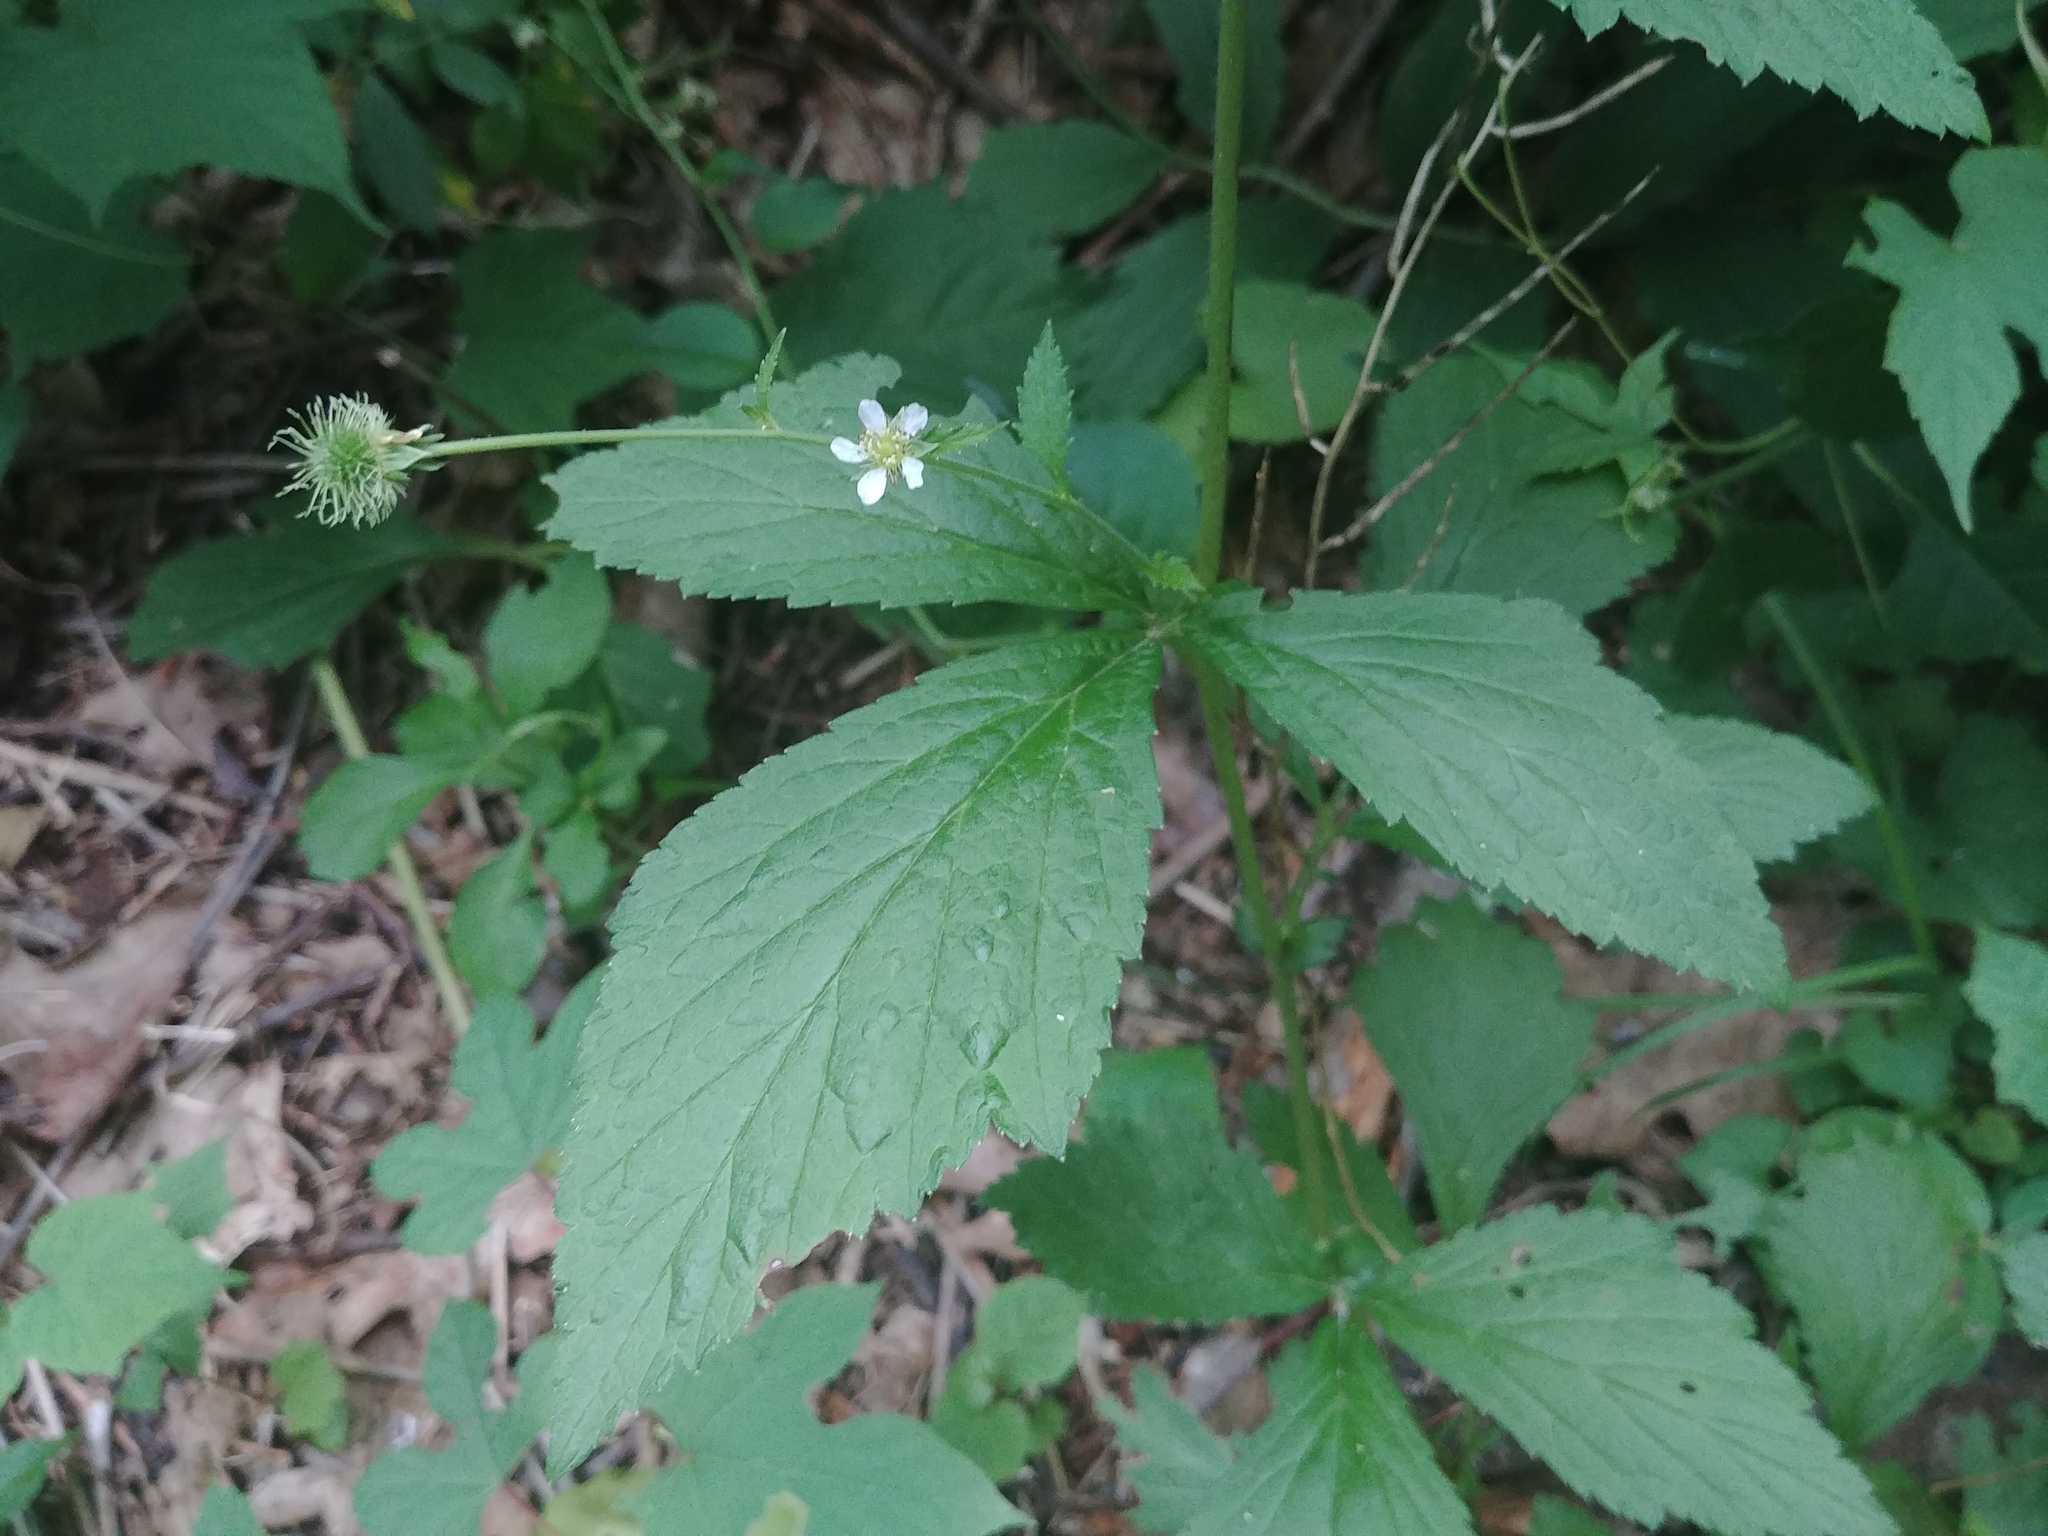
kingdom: Plantae
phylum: Tracheophyta
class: Magnoliopsida
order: Rosales
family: Rosaceae
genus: Geum
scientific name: Geum canadense
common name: White avens
